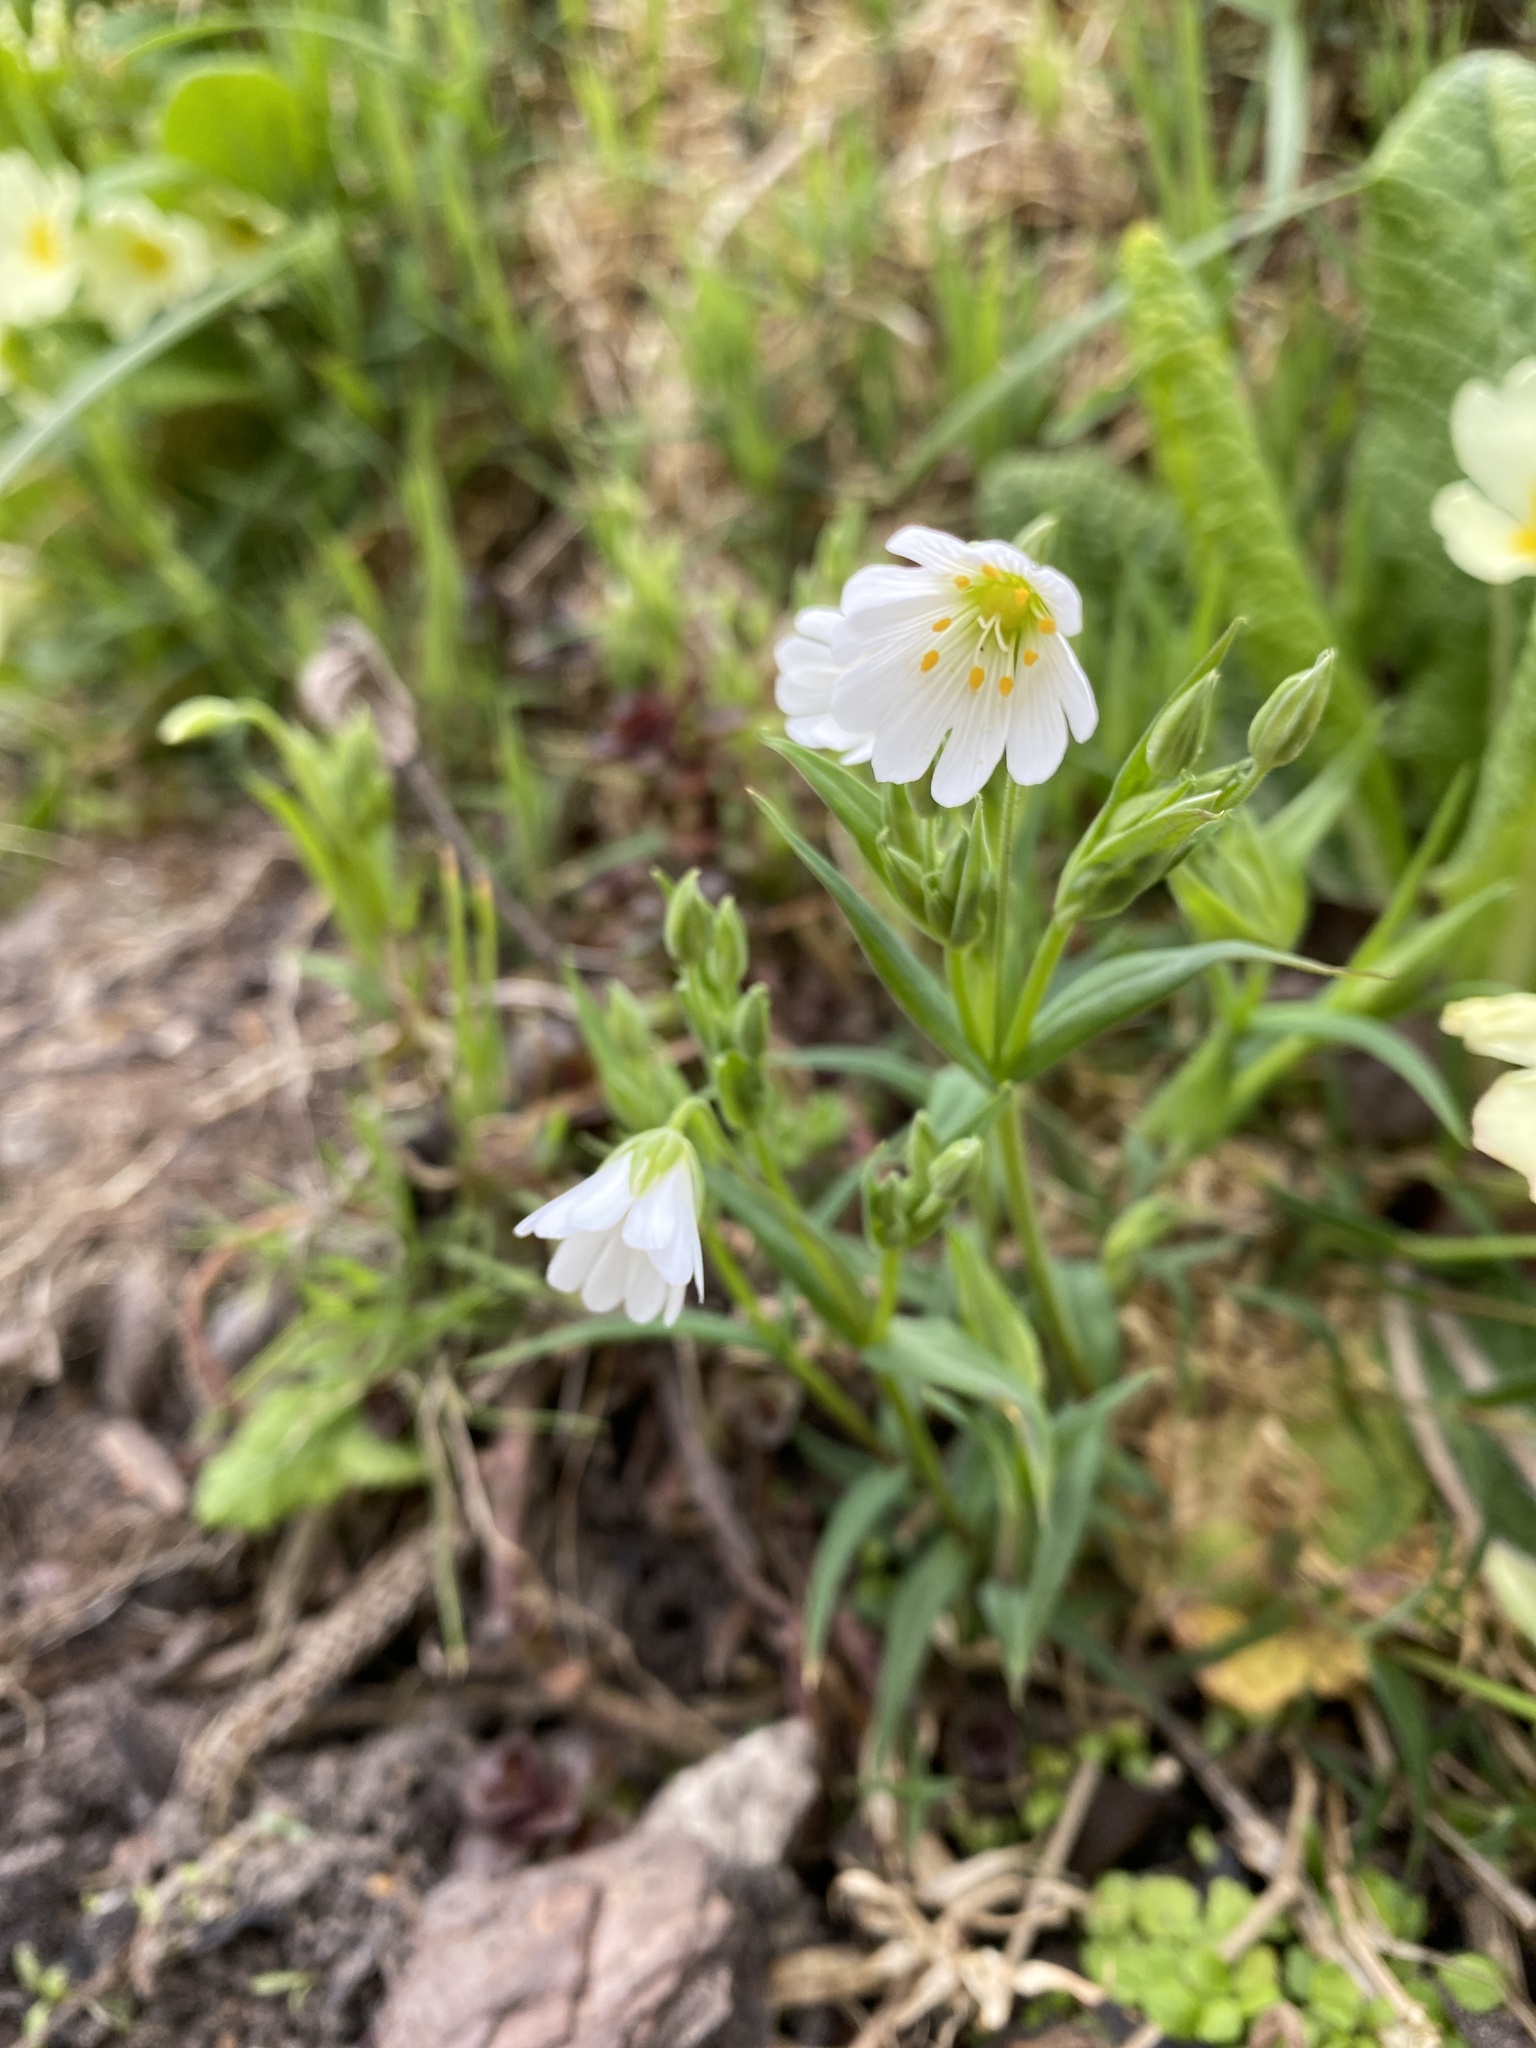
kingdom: Plantae
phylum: Tracheophyta
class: Magnoliopsida
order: Caryophyllales
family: Caryophyllaceae
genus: Rabelera
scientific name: Rabelera holostea
